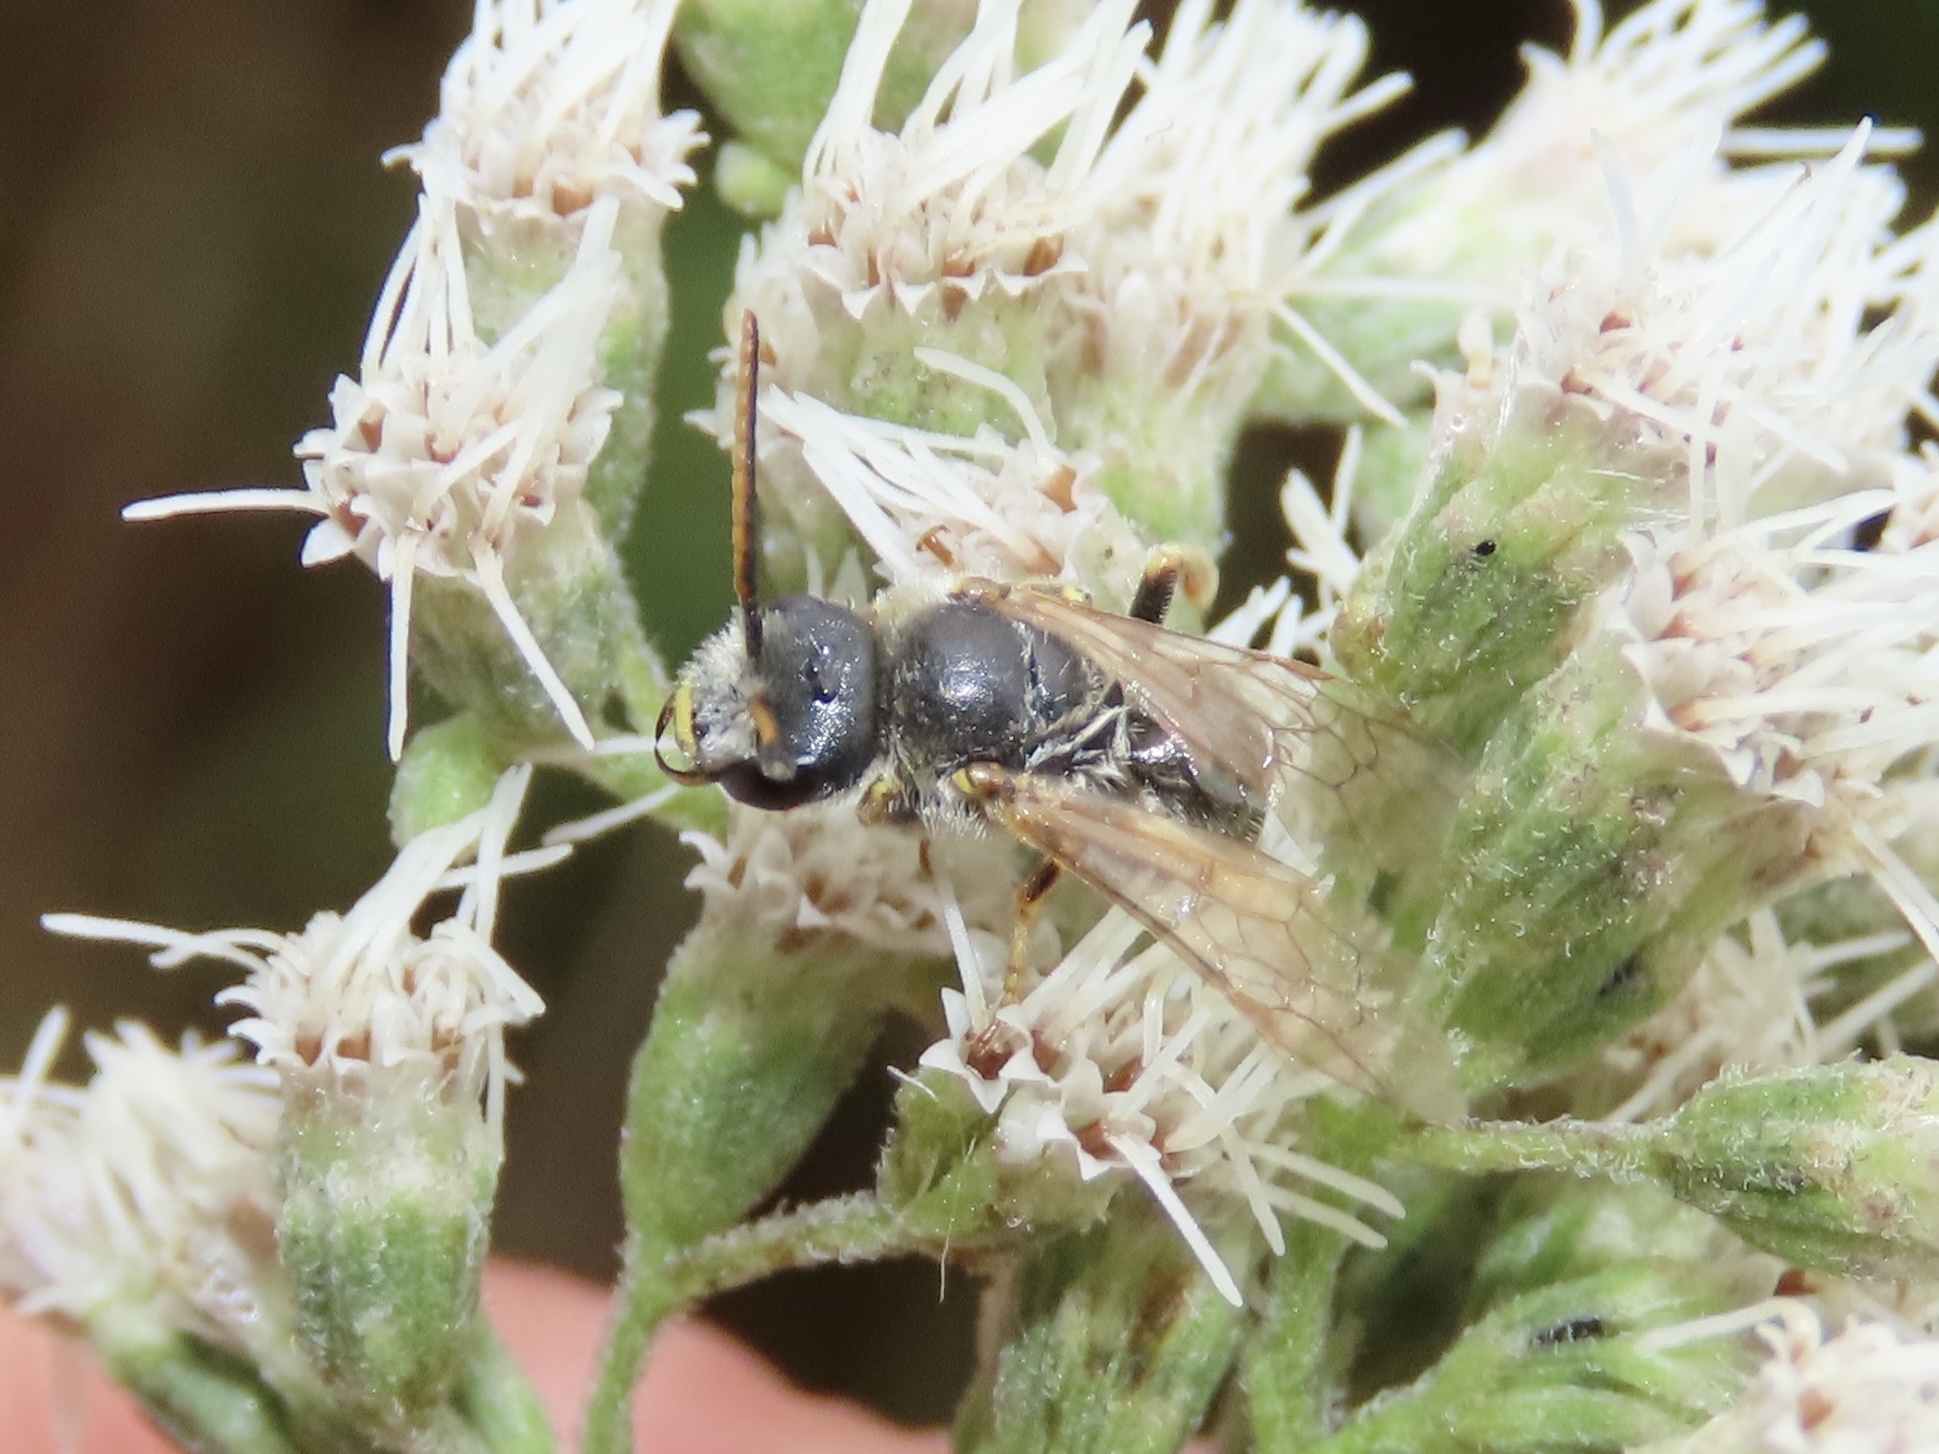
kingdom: Animalia
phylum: Arthropoda
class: Insecta
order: Hymenoptera
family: Halictidae
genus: Halictus
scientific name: Halictus ligatus
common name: Ligated furrow bee
